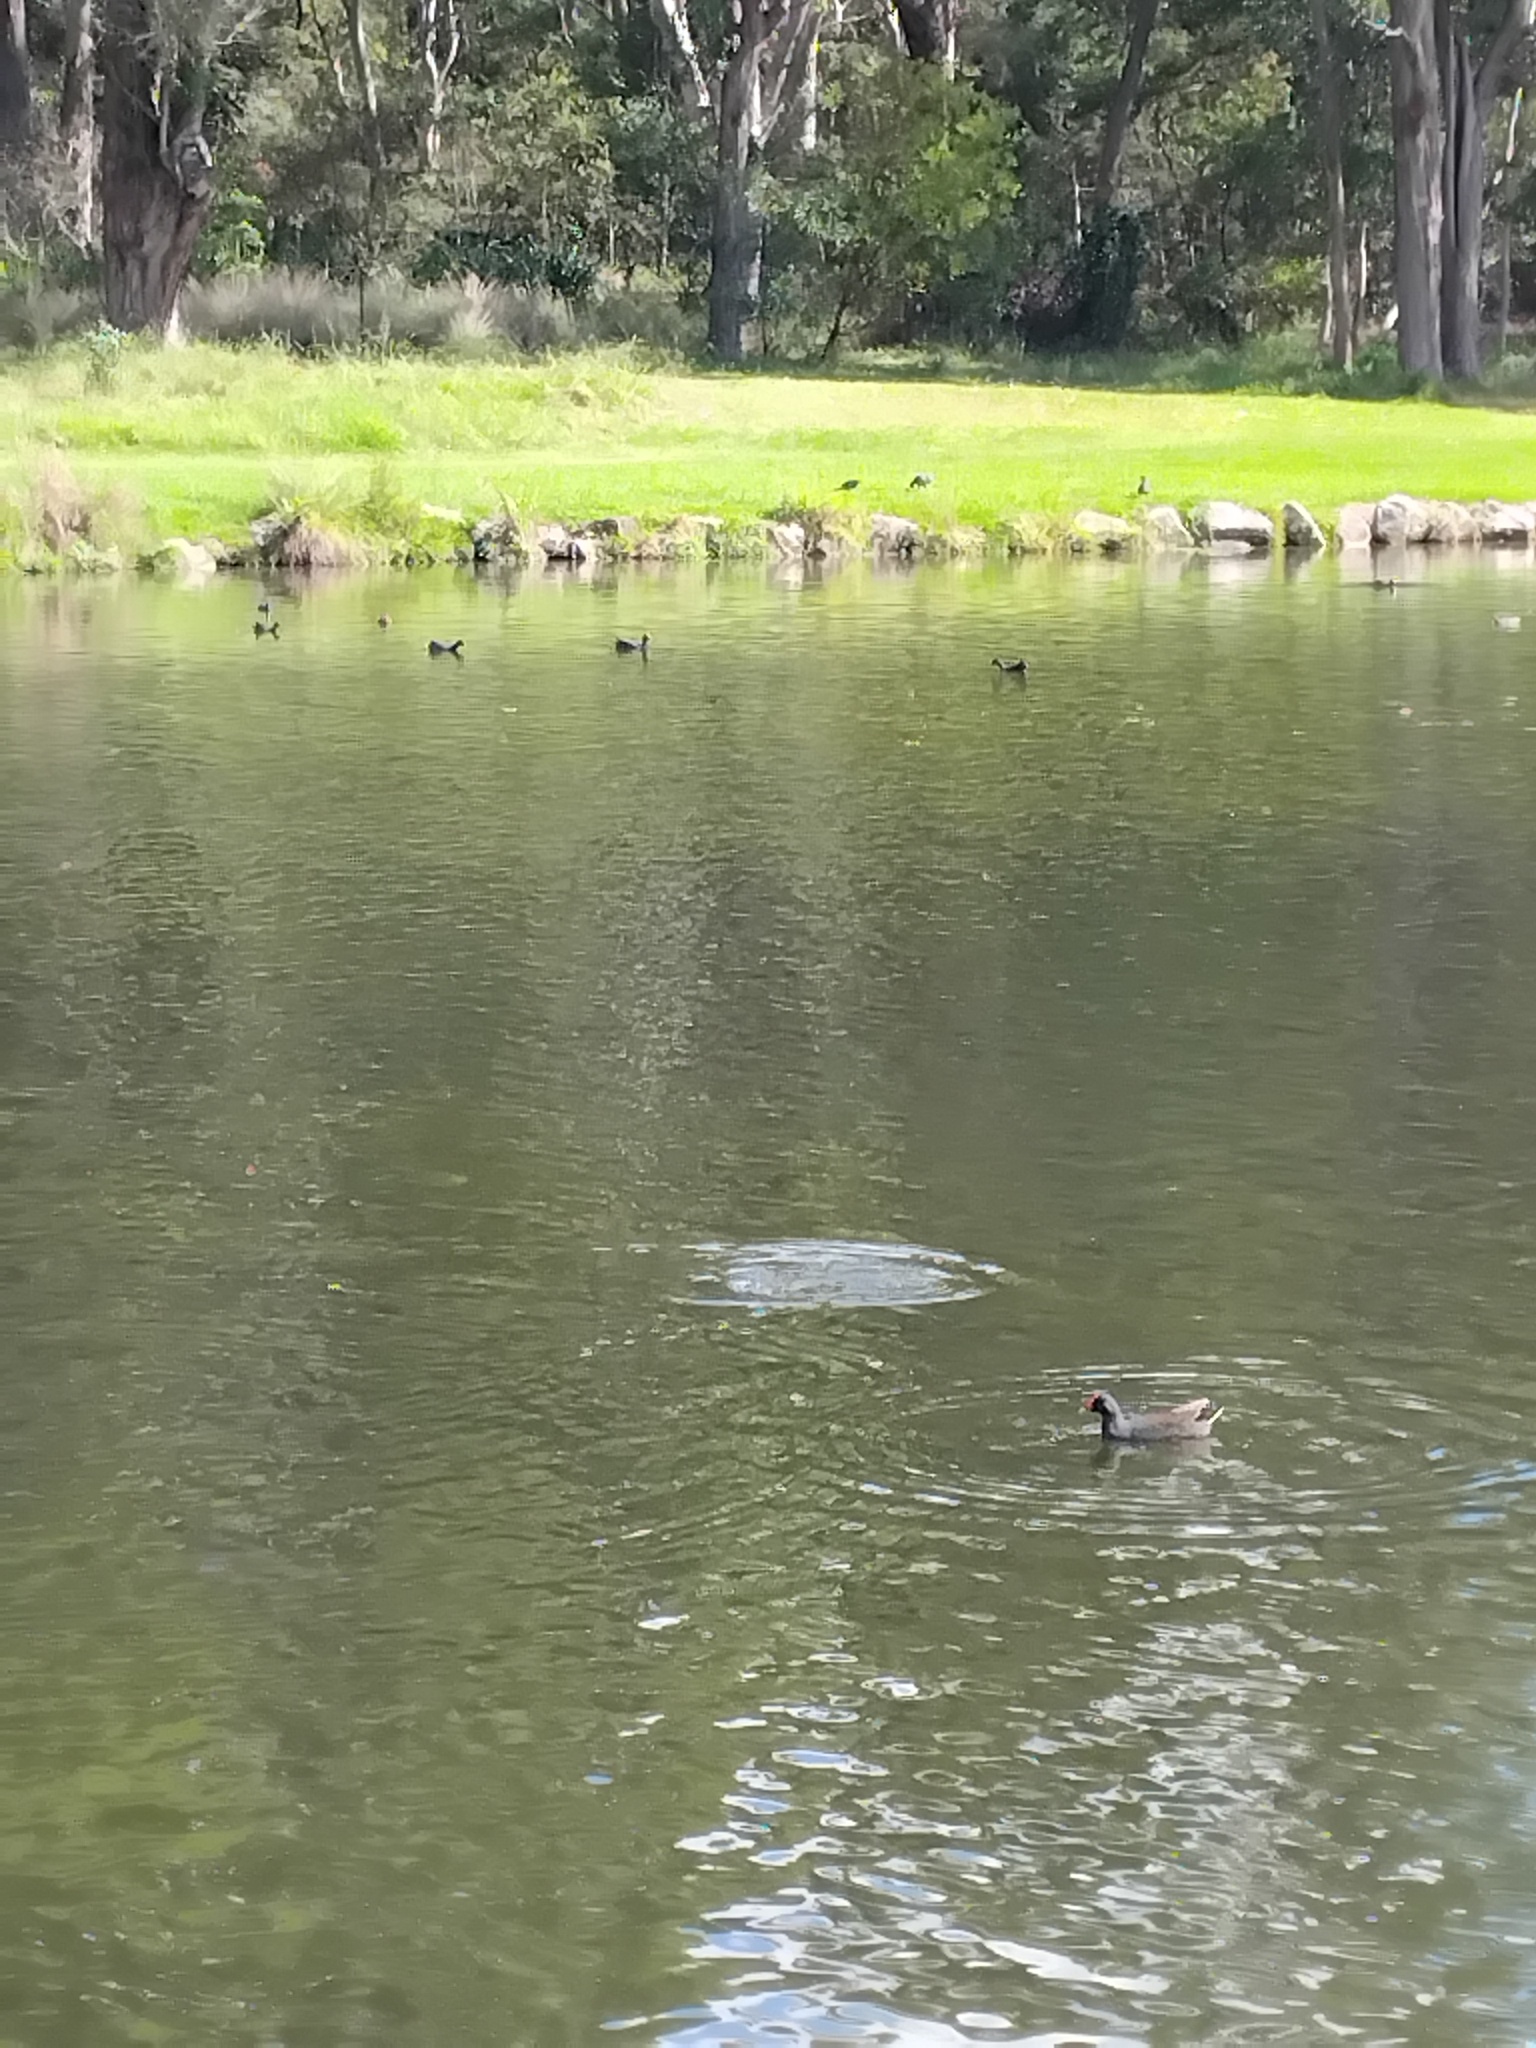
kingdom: Animalia
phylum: Chordata
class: Aves
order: Gruiformes
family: Rallidae
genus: Gallinula
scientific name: Gallinula tenebrosa
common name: Dusky moorhen
